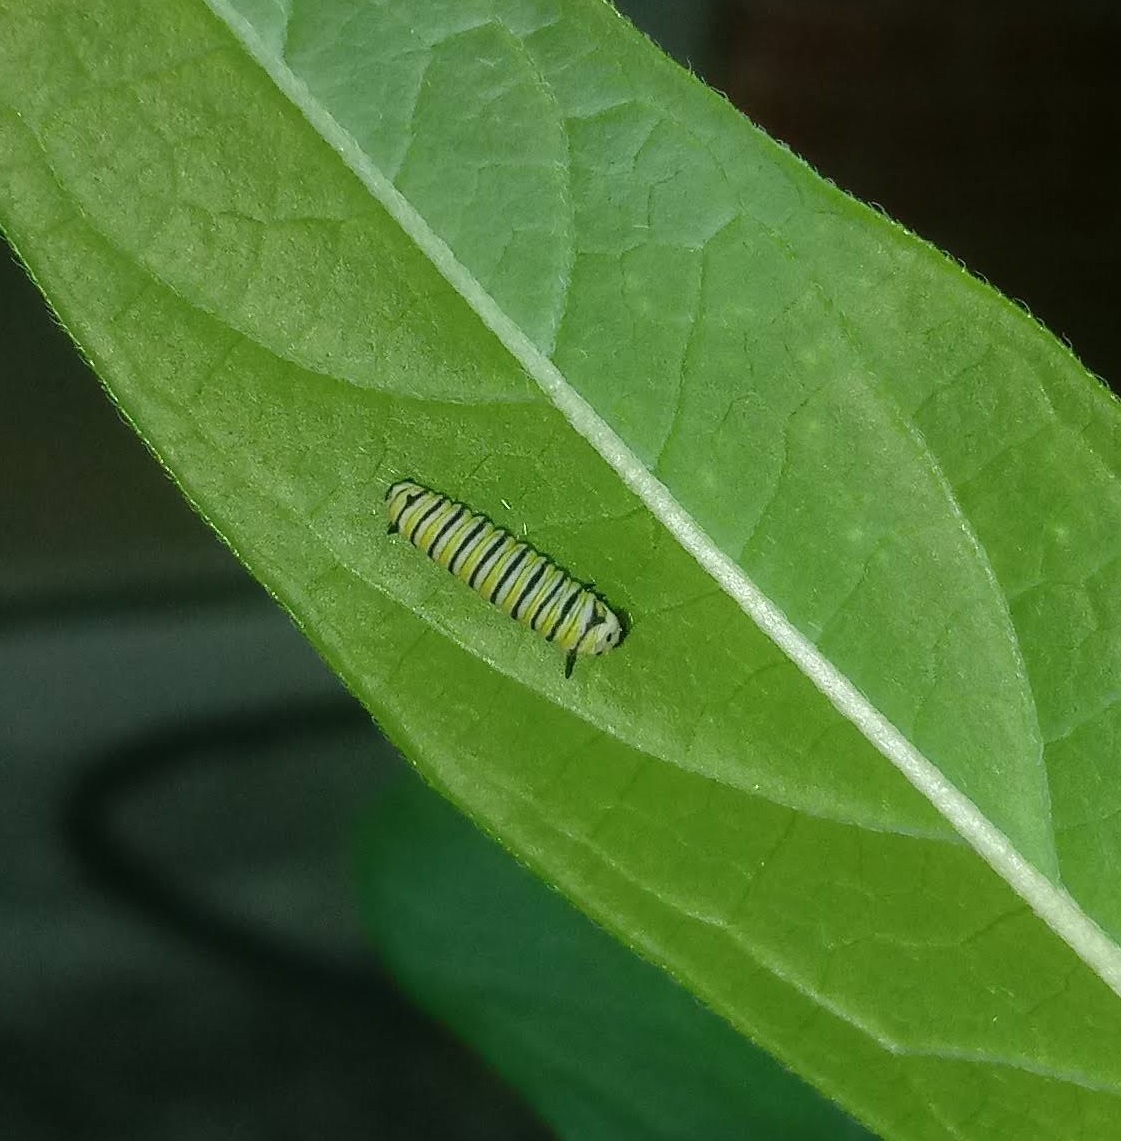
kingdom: Animalia
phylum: Arthropoda
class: Insecta
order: Lepidoptera
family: Nymphalidae
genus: Danaus
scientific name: Danaus plexippus
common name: Monarch
